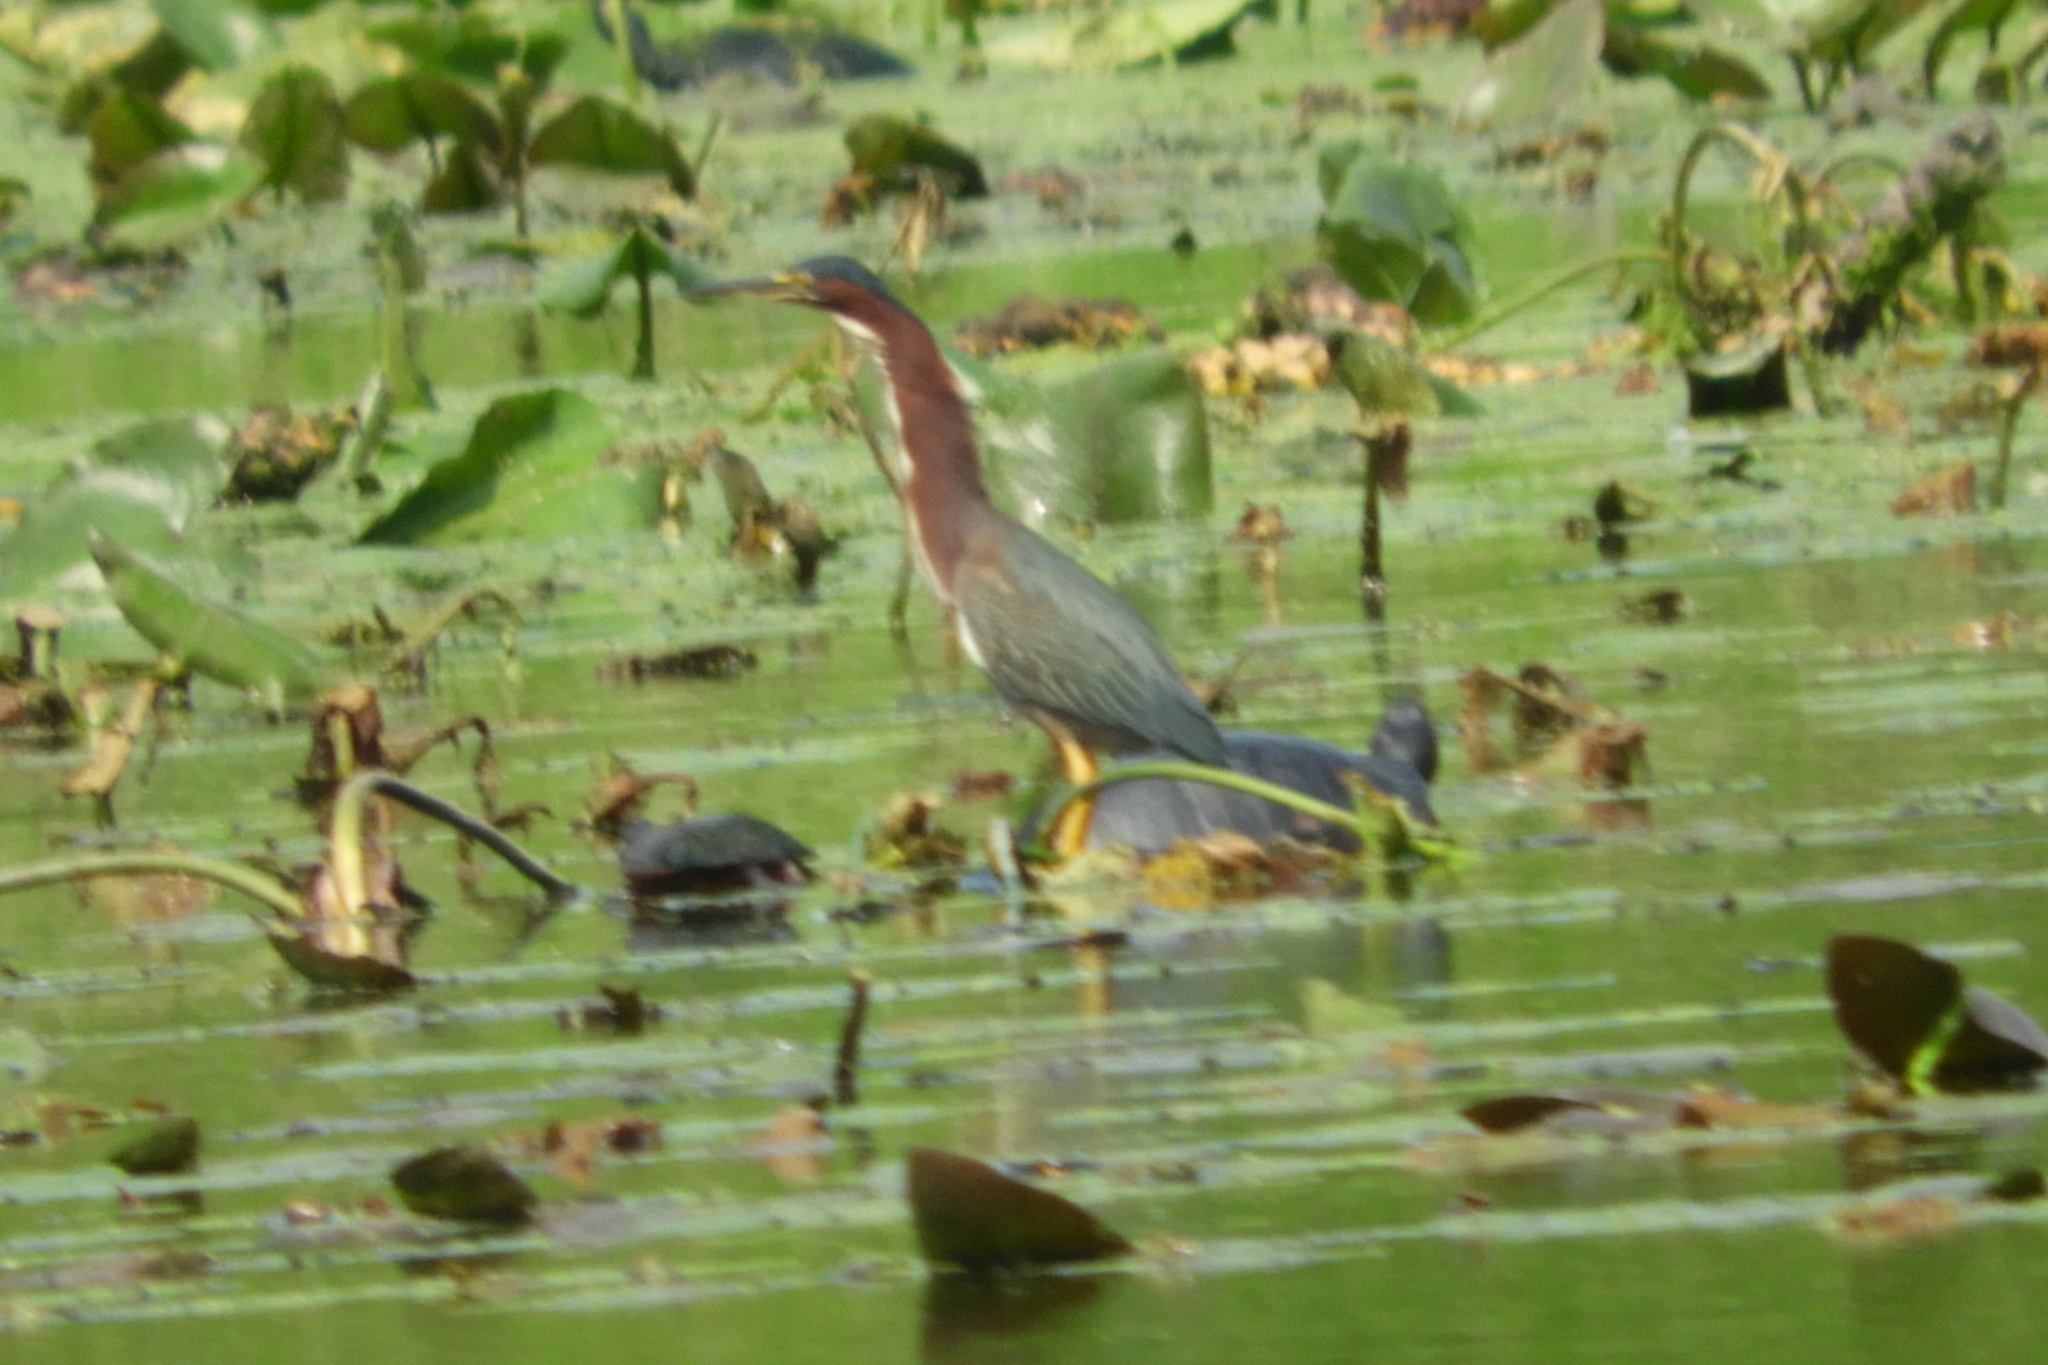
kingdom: Animalia
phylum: Chordata
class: Aves
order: Pelecaniformes
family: Ardeidae
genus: Butorides
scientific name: Butorides virescens
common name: Green heron
